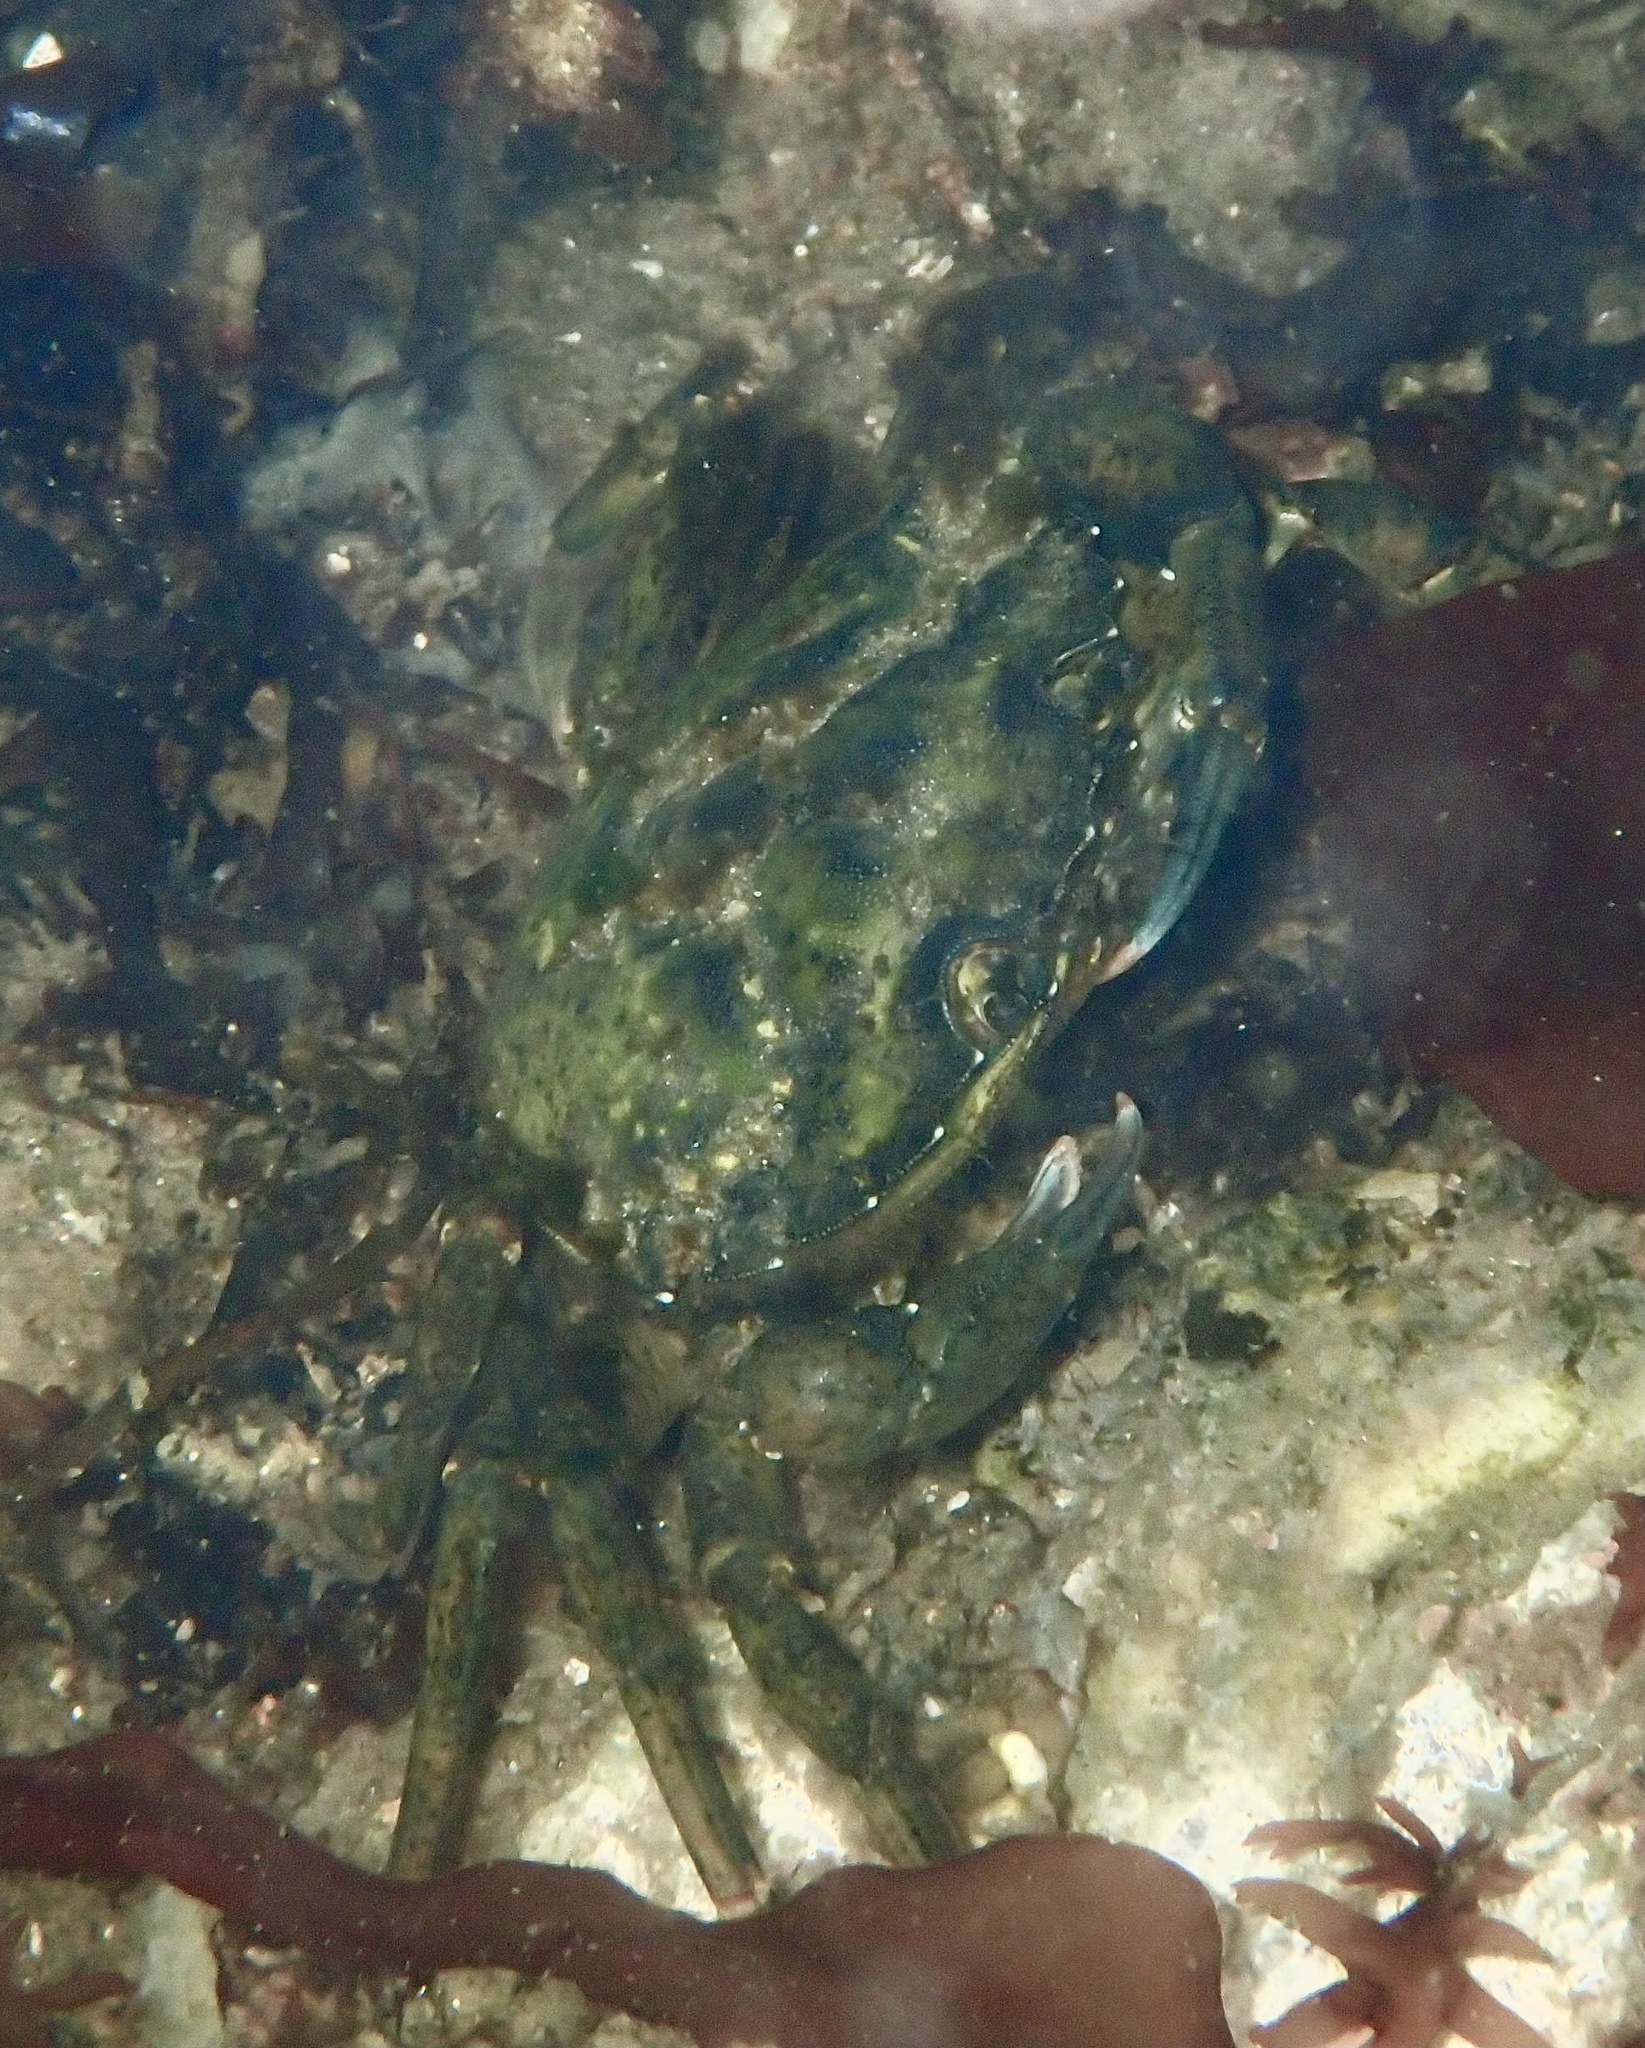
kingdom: Animalia
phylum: Arthropoda
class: Malacostraca
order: Decapoda
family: Carcinidae
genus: Carcinus
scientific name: Carcinus maenas
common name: European green crab
